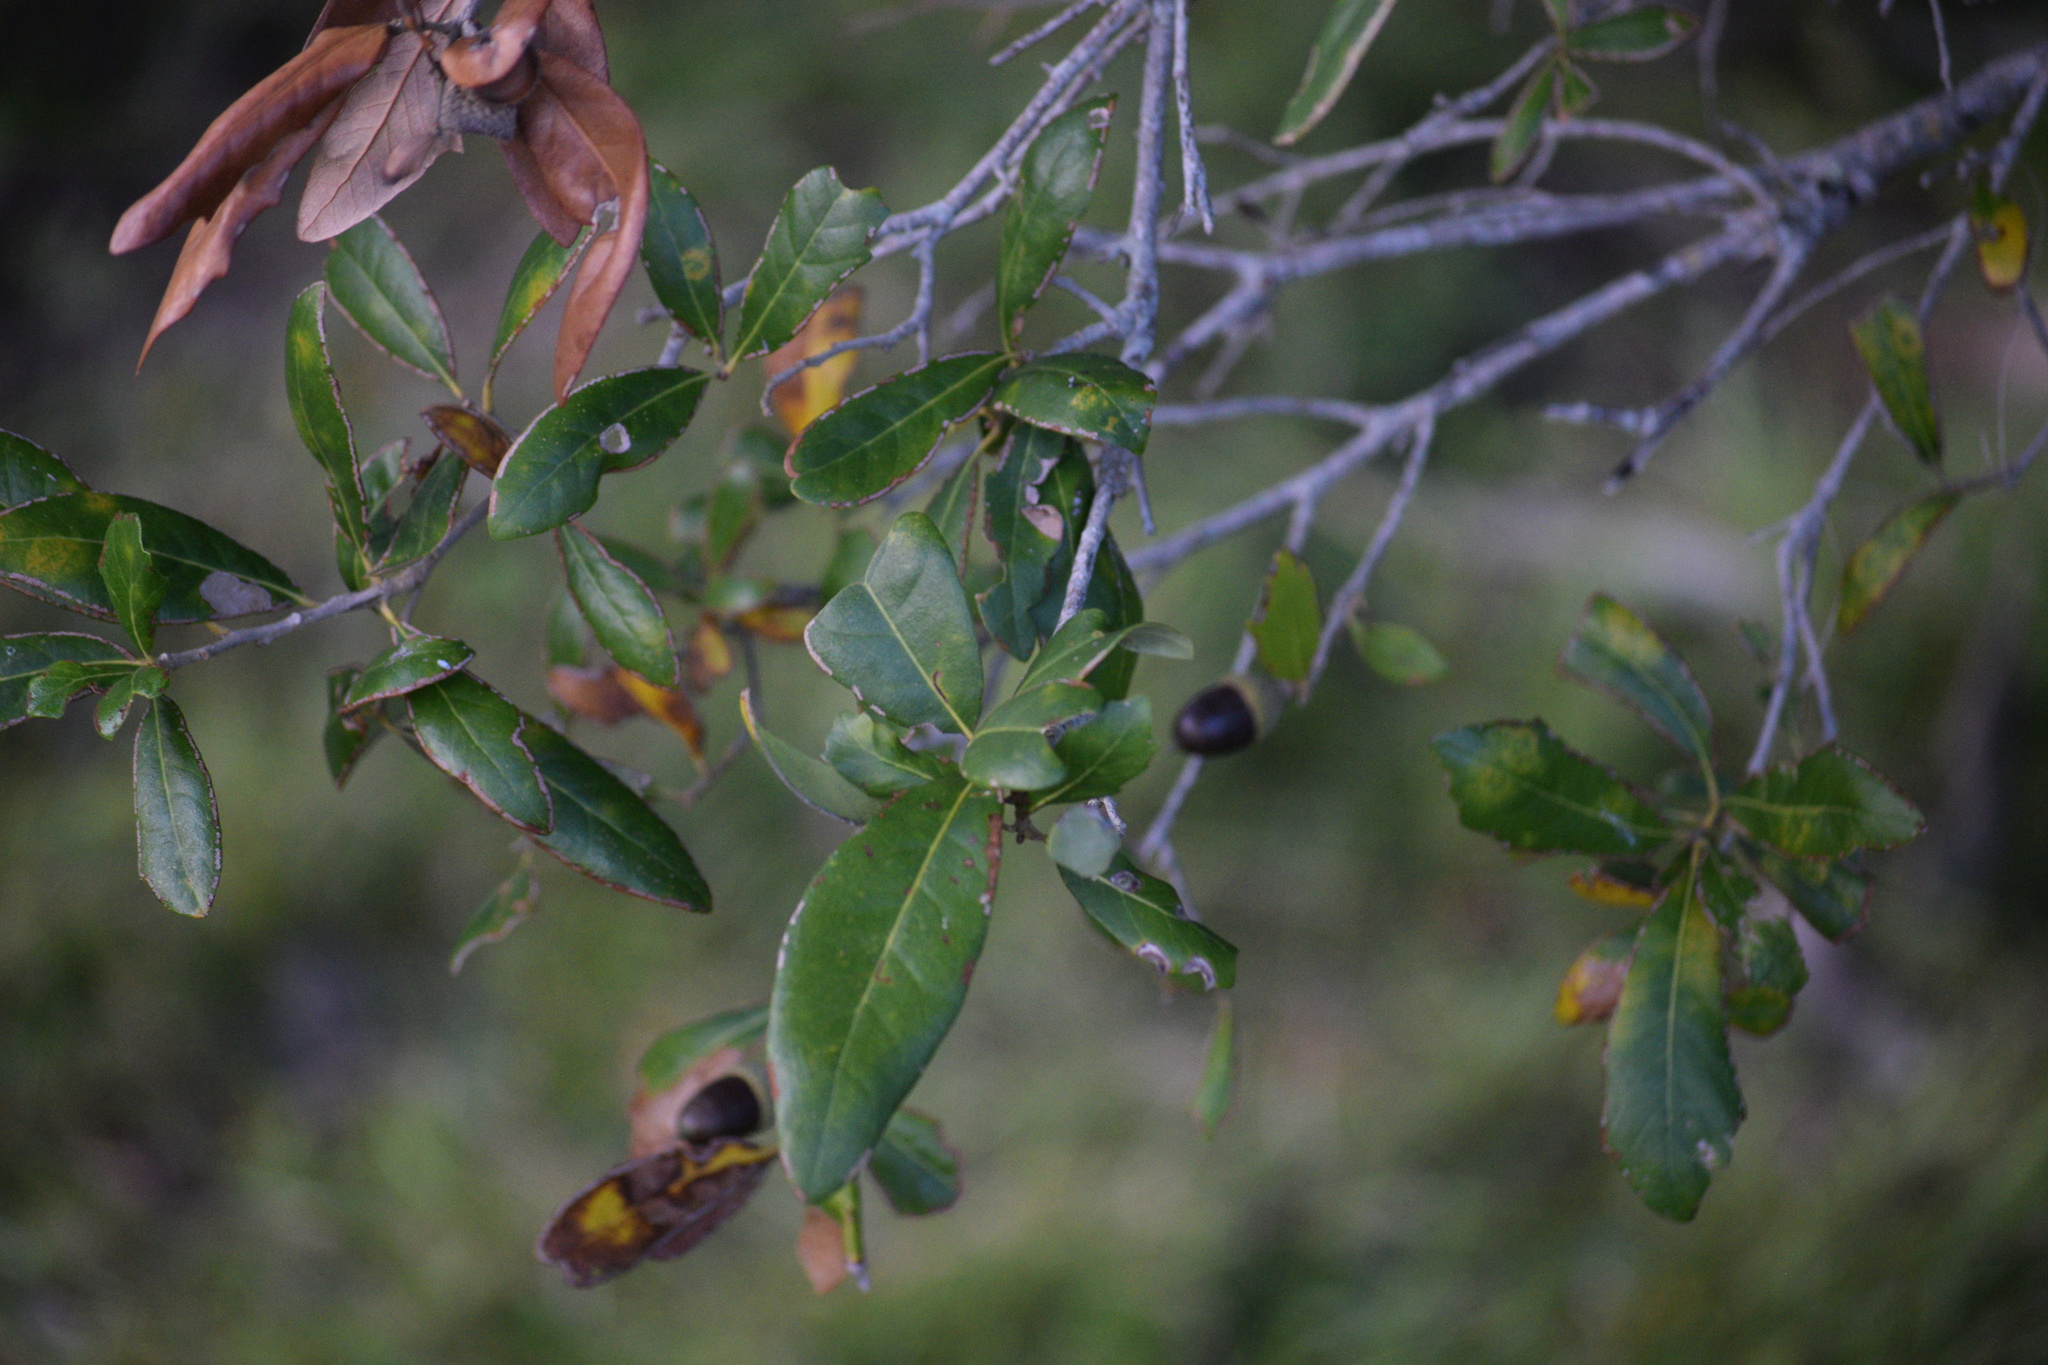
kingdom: Plantae
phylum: Tracheophyta
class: Magnoliopsida
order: Fagales
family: Fagaceae
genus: Quercus
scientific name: Quercus geminata
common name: Sand live oak
